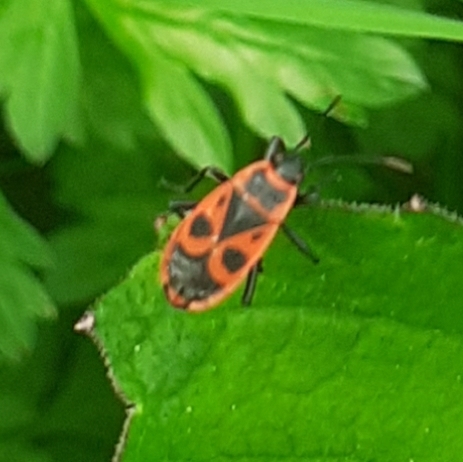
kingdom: Animalia
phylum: Arthropoda
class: Insecta
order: Hemiptera
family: Pyrrhocoridae
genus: Pyrrhocoris
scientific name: Pyrrhocoris apterus
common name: Firebug
